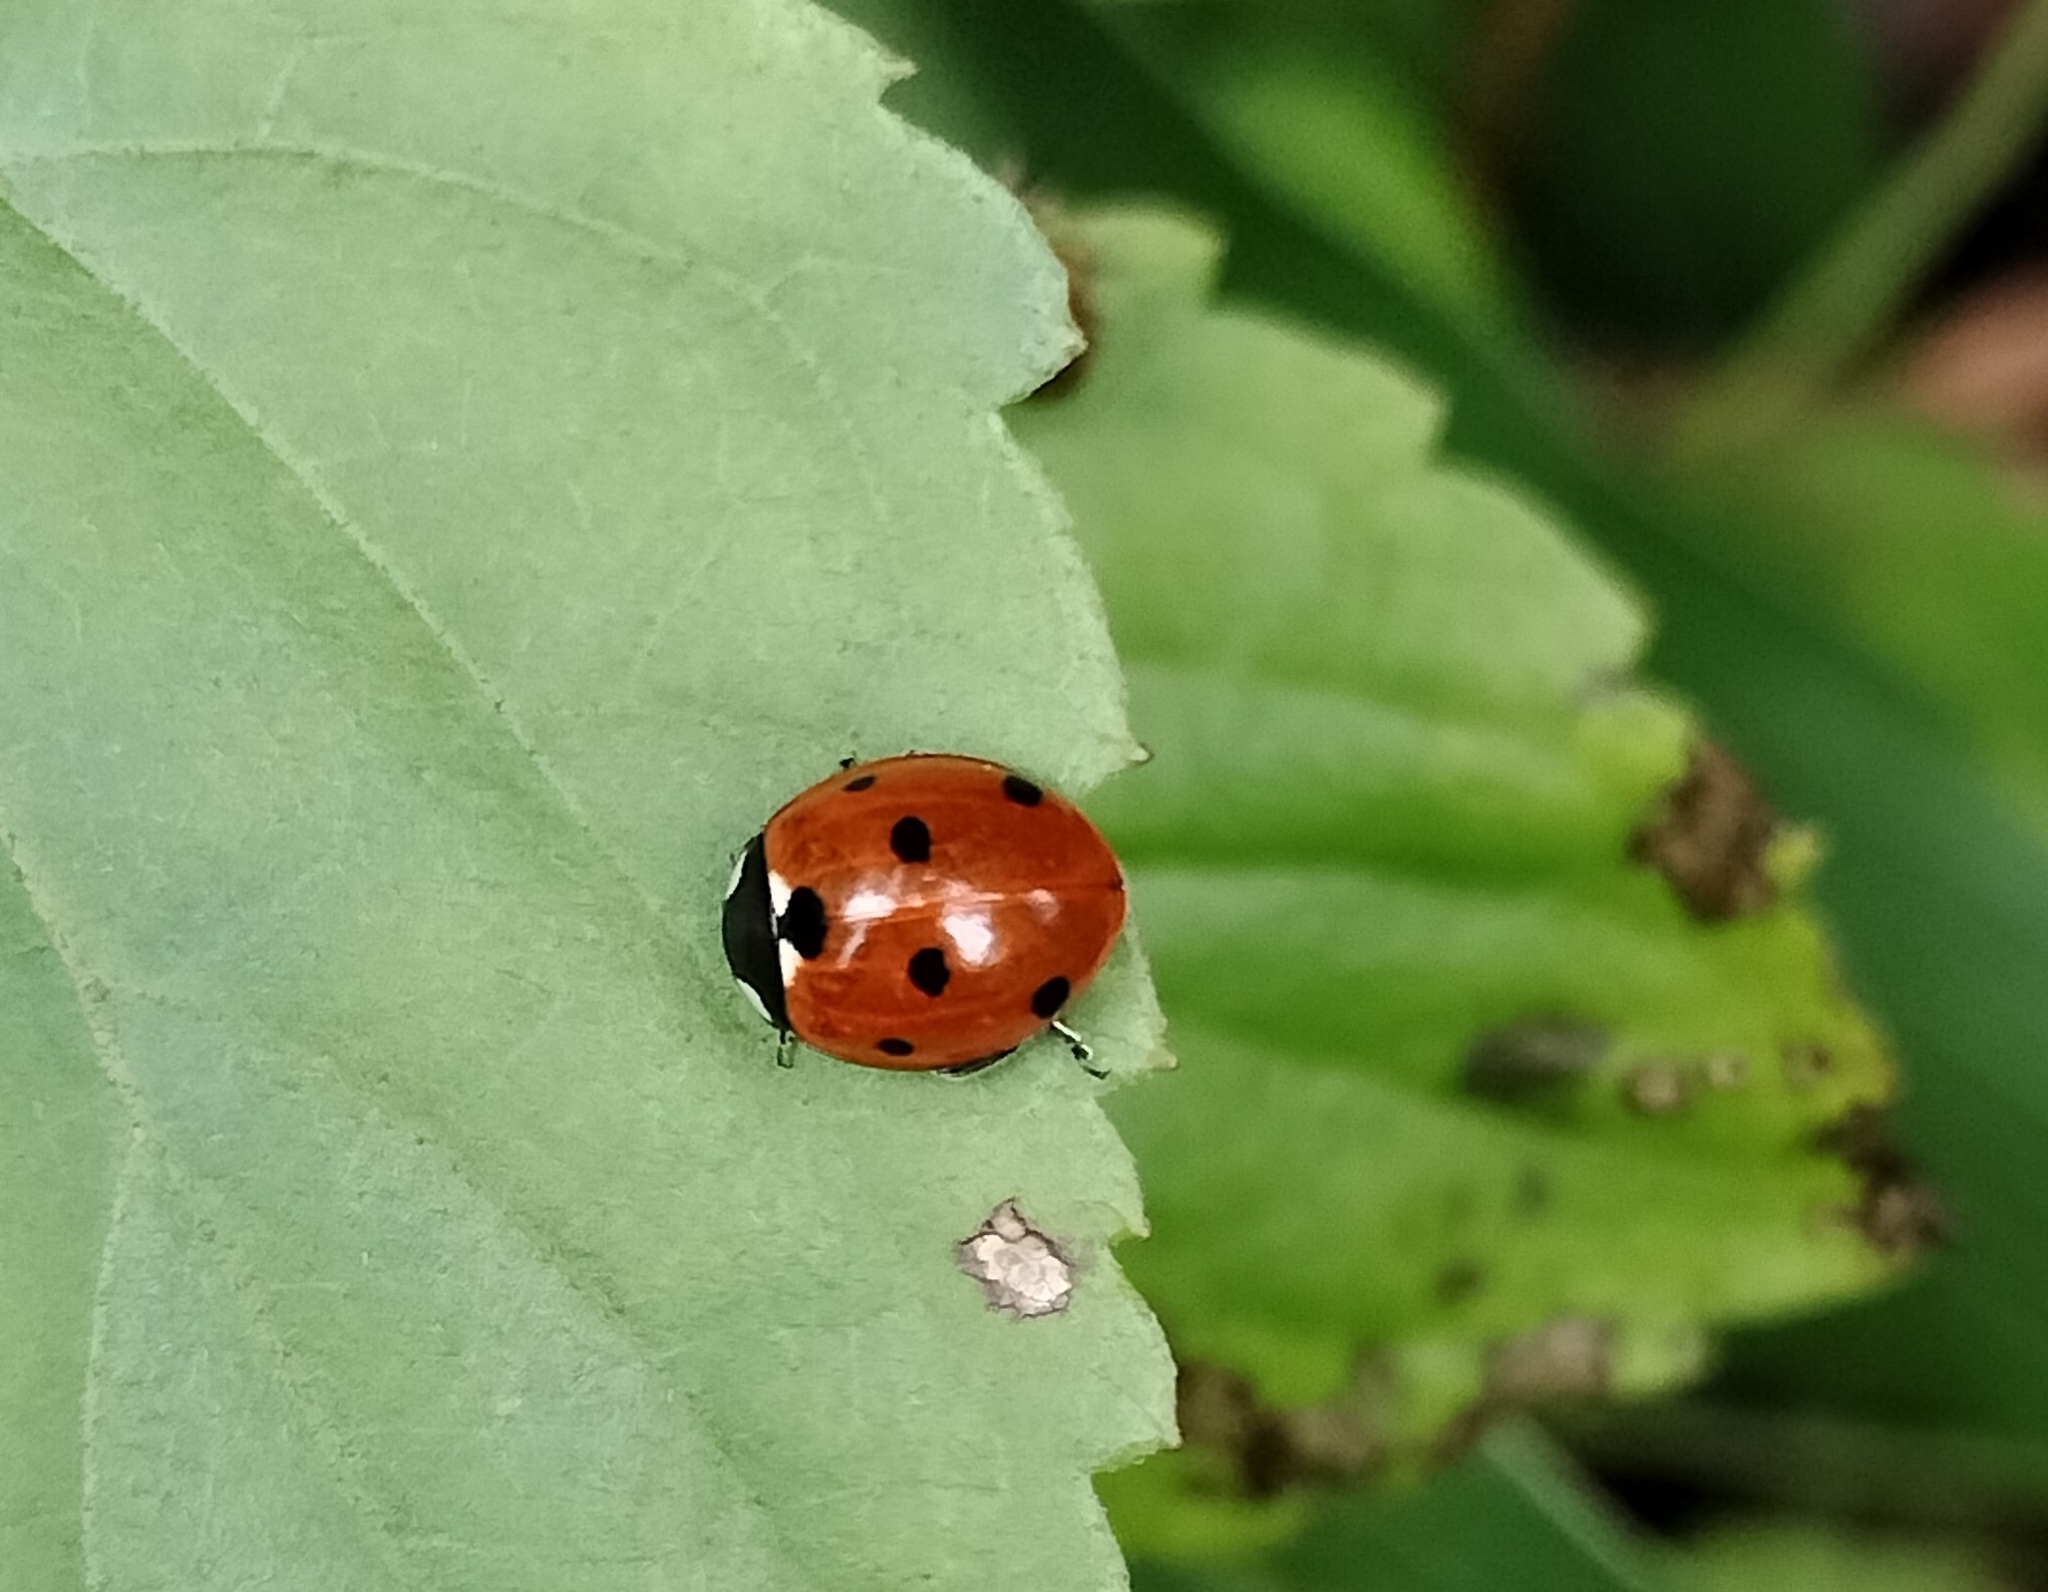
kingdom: Animalia
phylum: Arthropoda
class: Insecta
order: Coleoptera
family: Coccinellidae
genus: Coccinella
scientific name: Coccinella septempunctata
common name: Sevenspotted lady beetle
